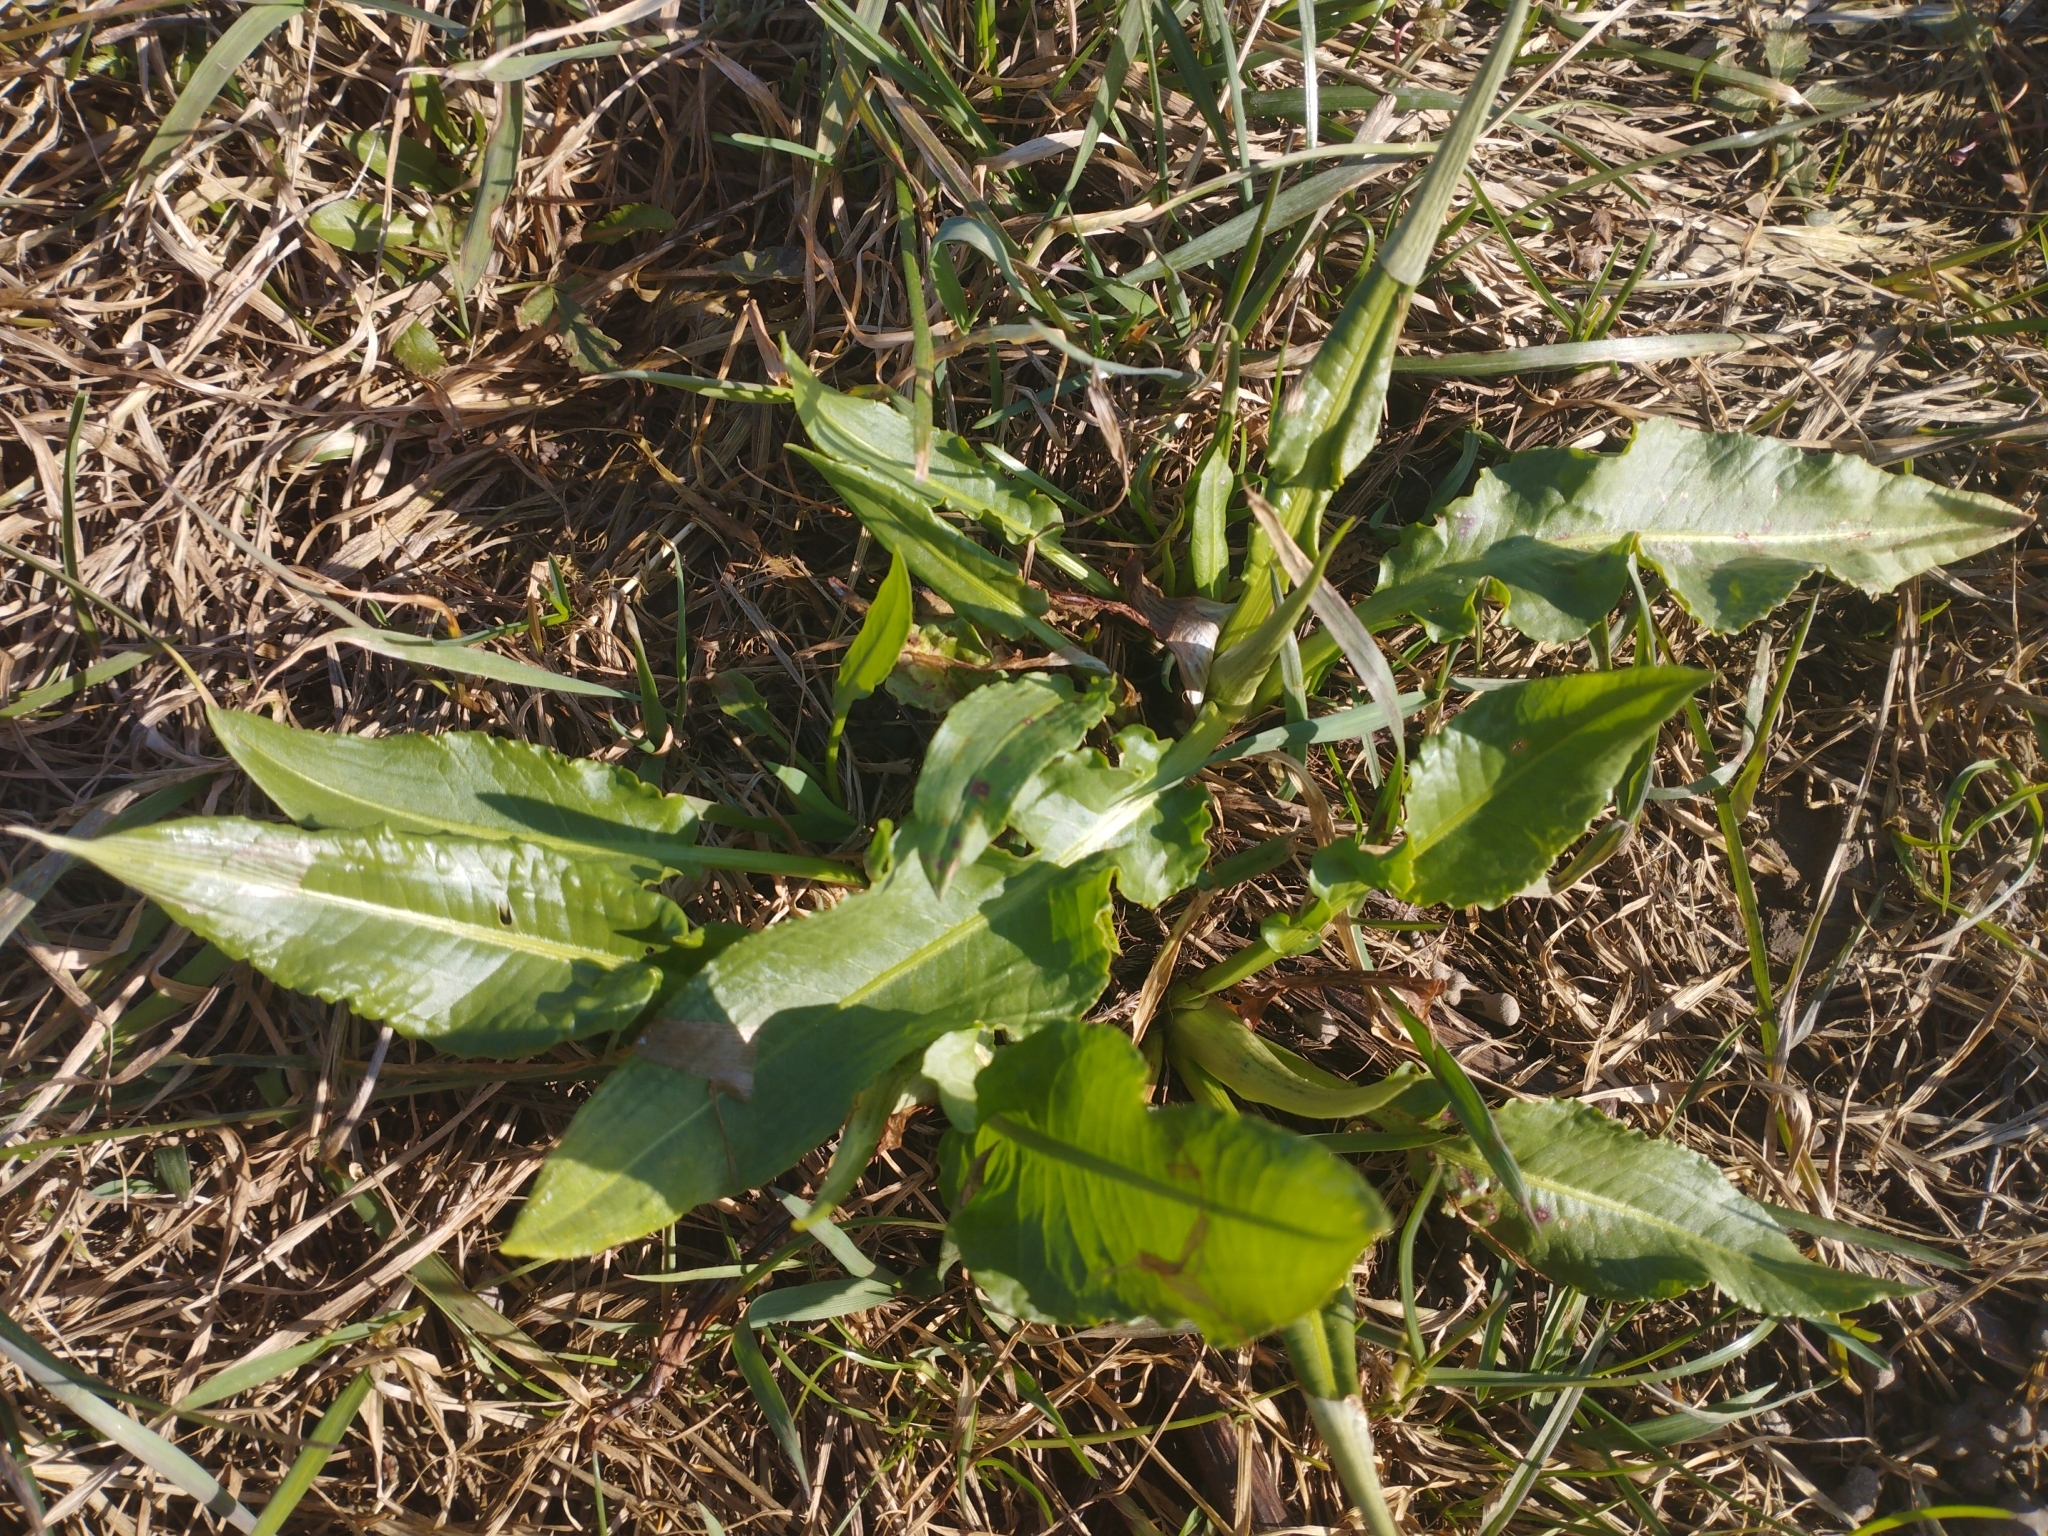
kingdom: Plantae
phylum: Tracheophyta
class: Magnoliopsida
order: Caryophyllales
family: Polygonaceae
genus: Rumex
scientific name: Rumex crispus
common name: Curled dock
